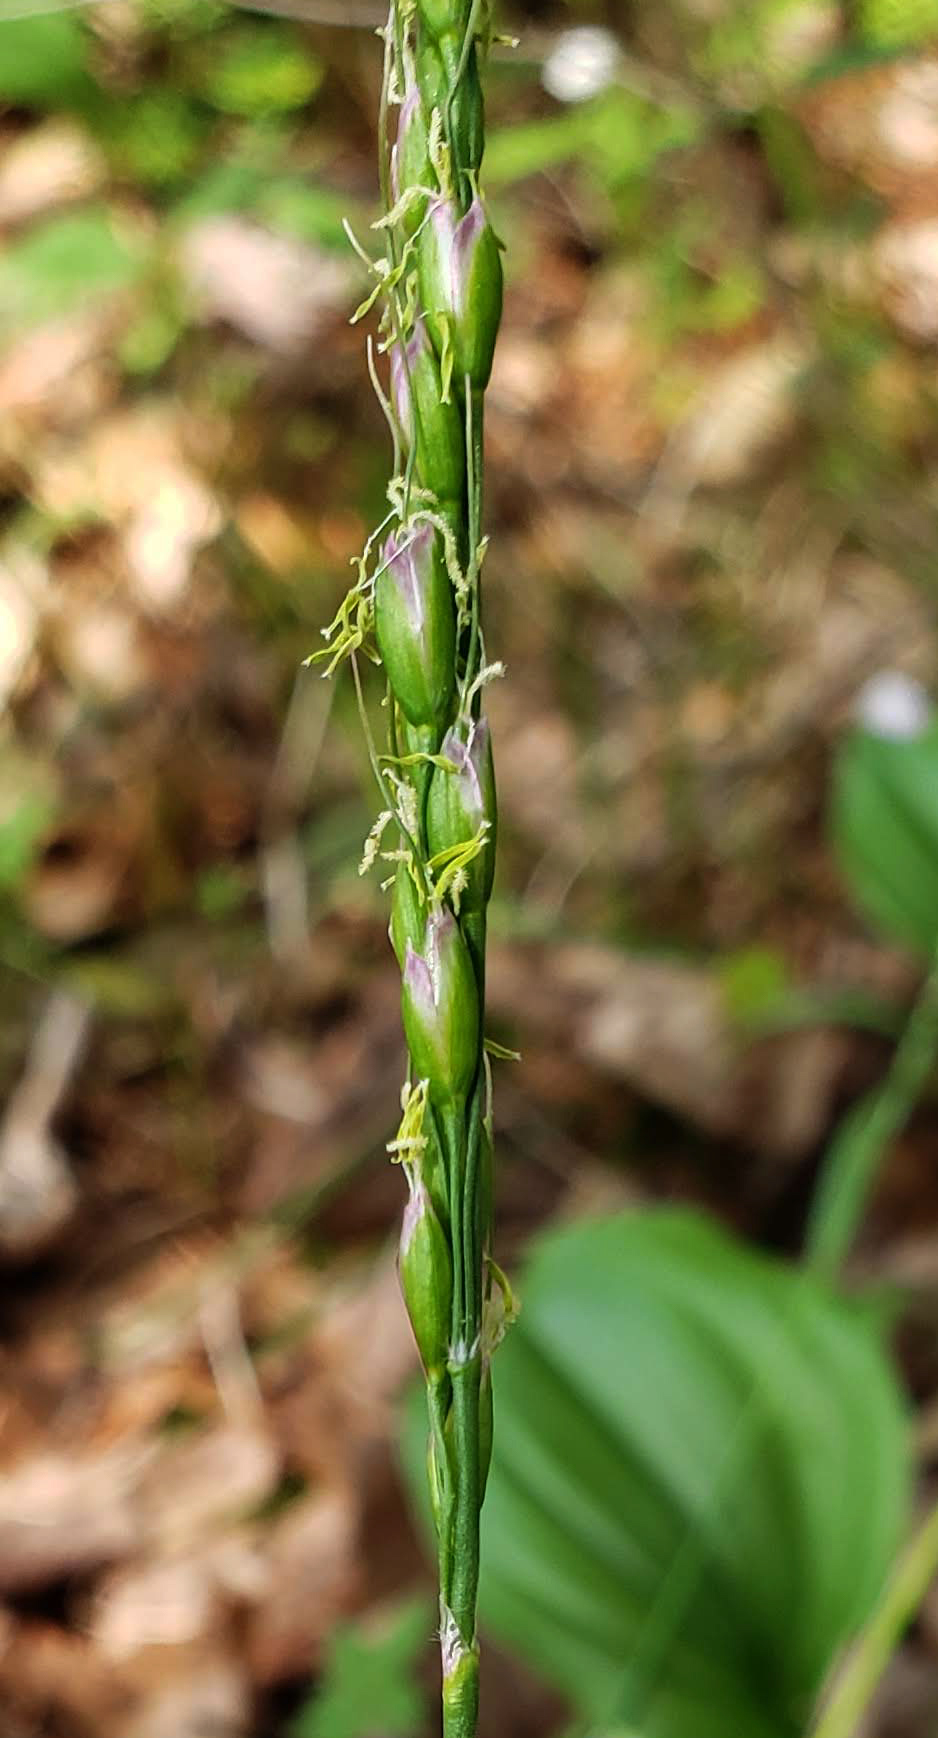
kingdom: Plantae
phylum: Tracheophyta
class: Liliopsida
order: Poales
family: Poaceae
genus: Oryzopsis
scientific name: Oryzopsis asperifolia
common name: Rough-leaved mountain rice
